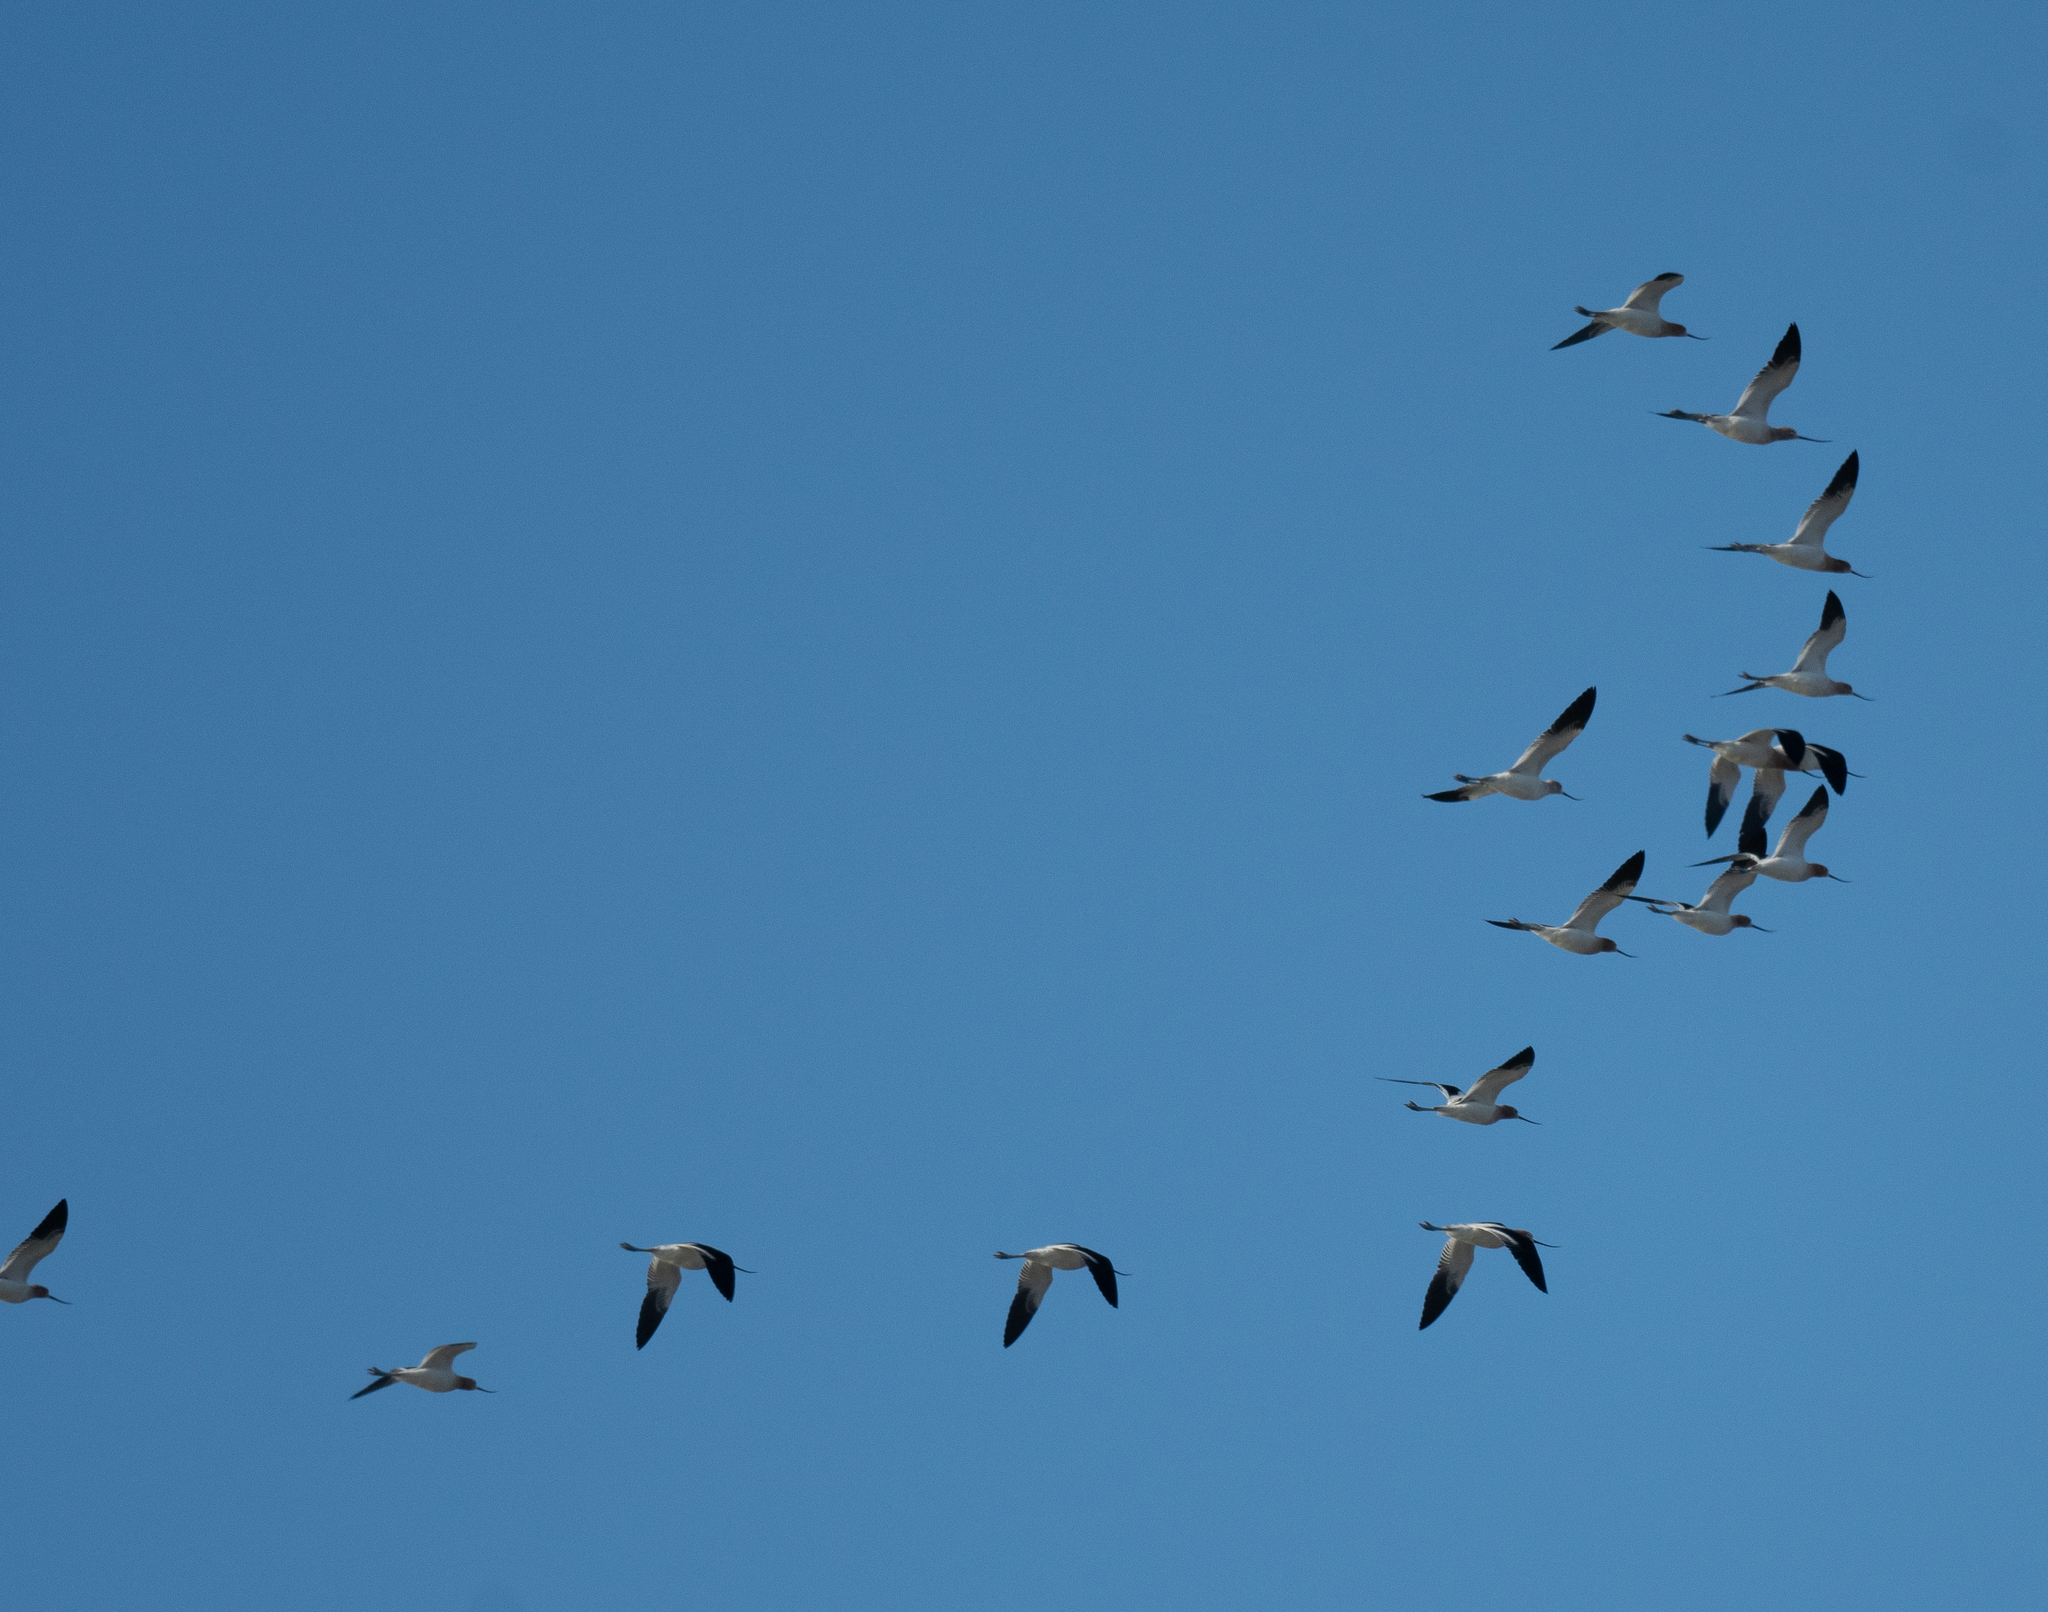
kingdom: Animalia
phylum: Chordata
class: Aves
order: Charadriiformes
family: Recurvirostridae
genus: Recurvirostra
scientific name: Recurvirostra americana
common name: American avocet
